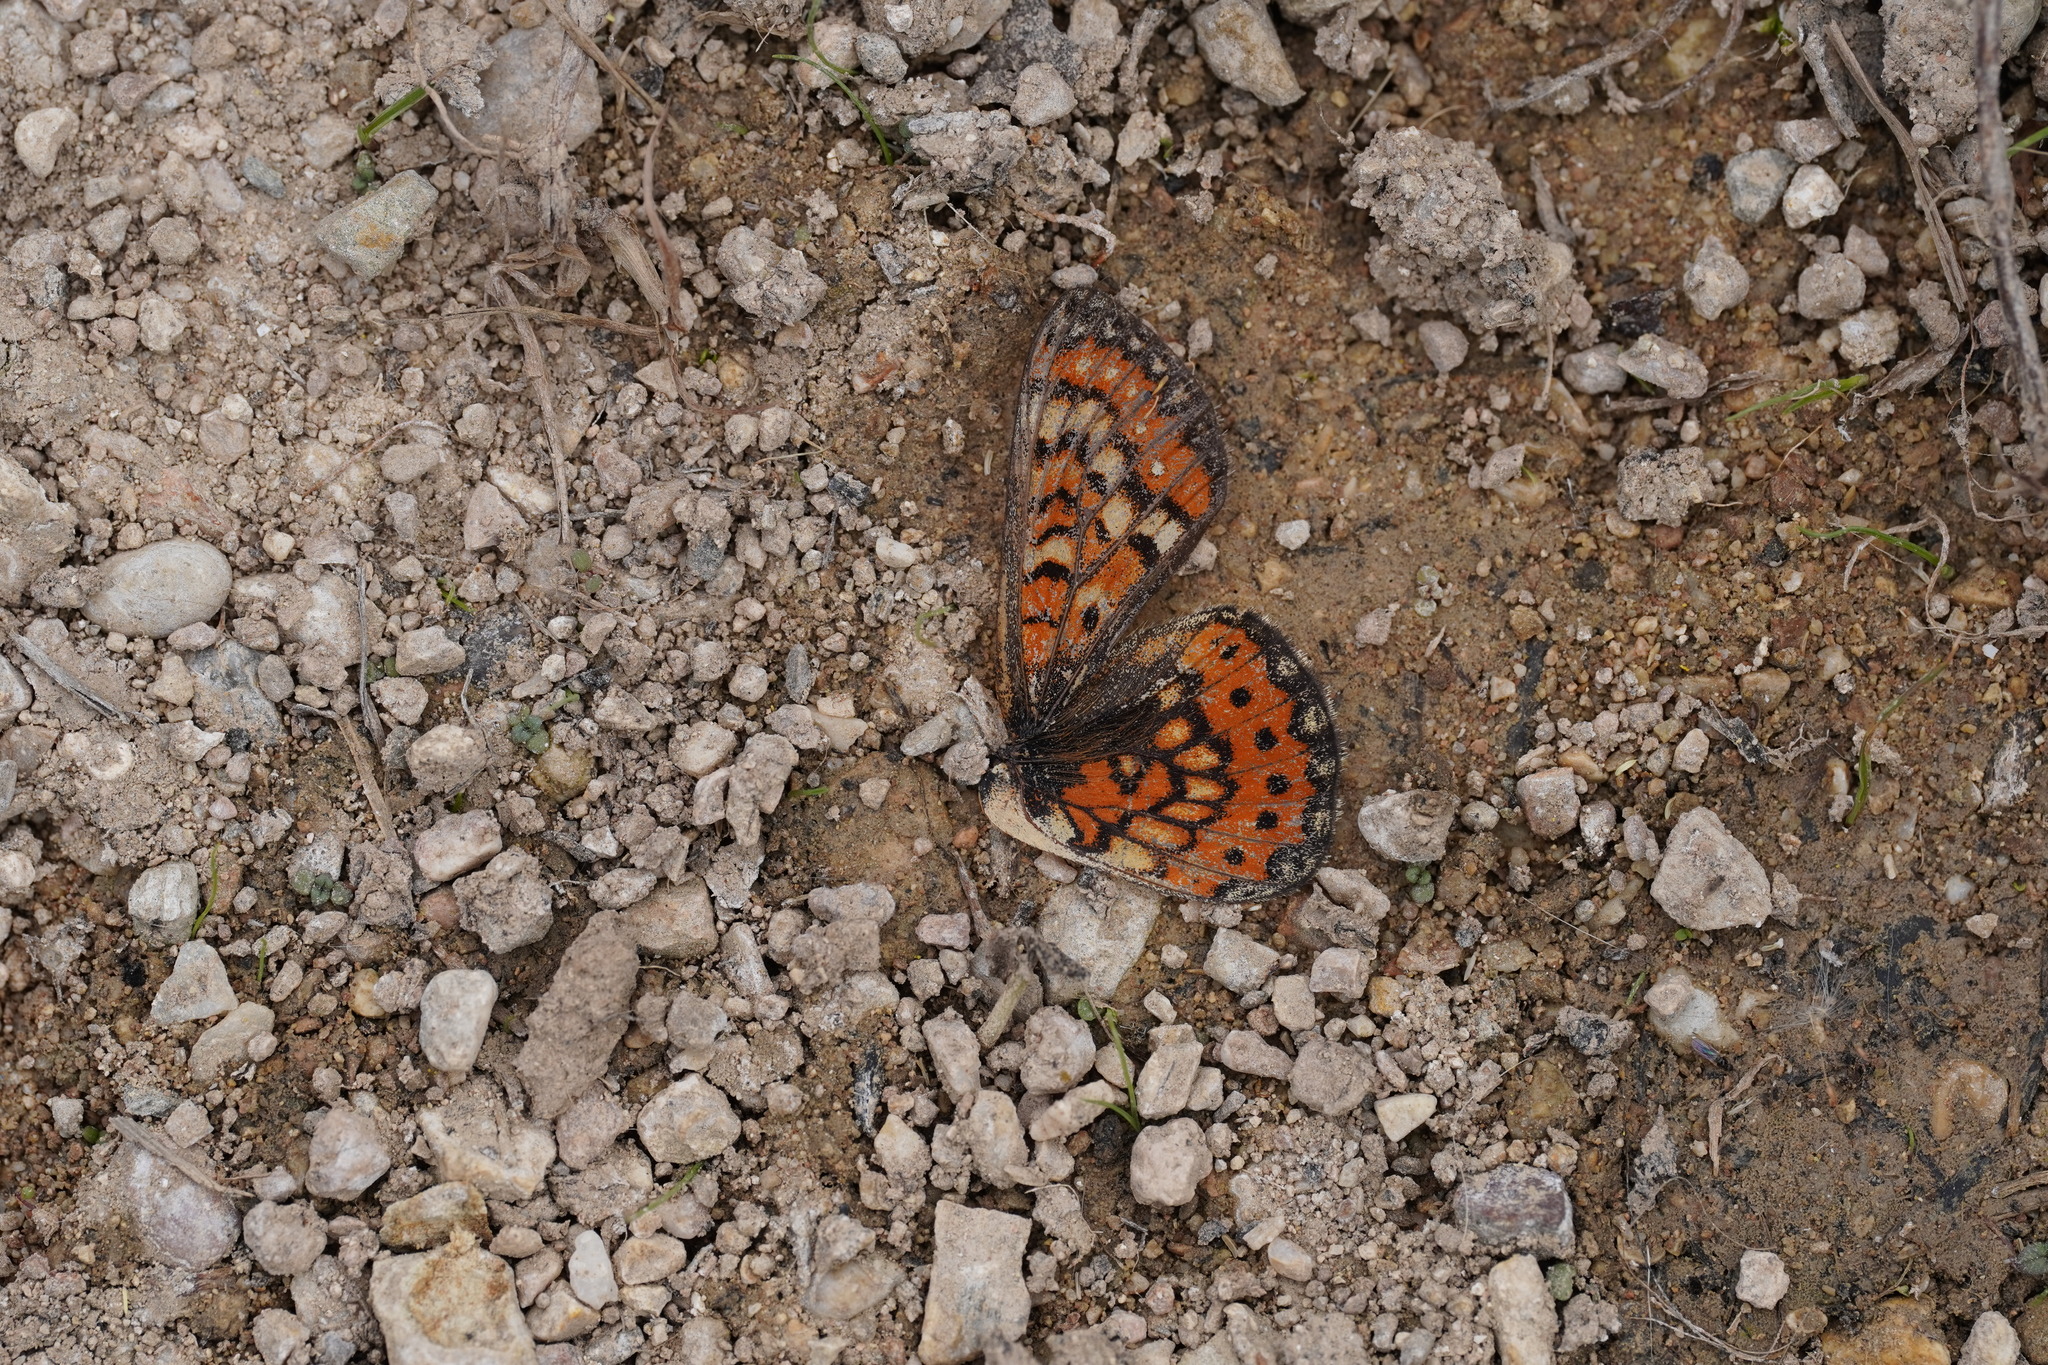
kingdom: Animalia
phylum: Arthropoda
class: Insecta
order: Lepidoptera
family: Nymphalidae
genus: Euphydryas
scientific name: Euphydryas desfontainii
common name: Spanish fritillary
